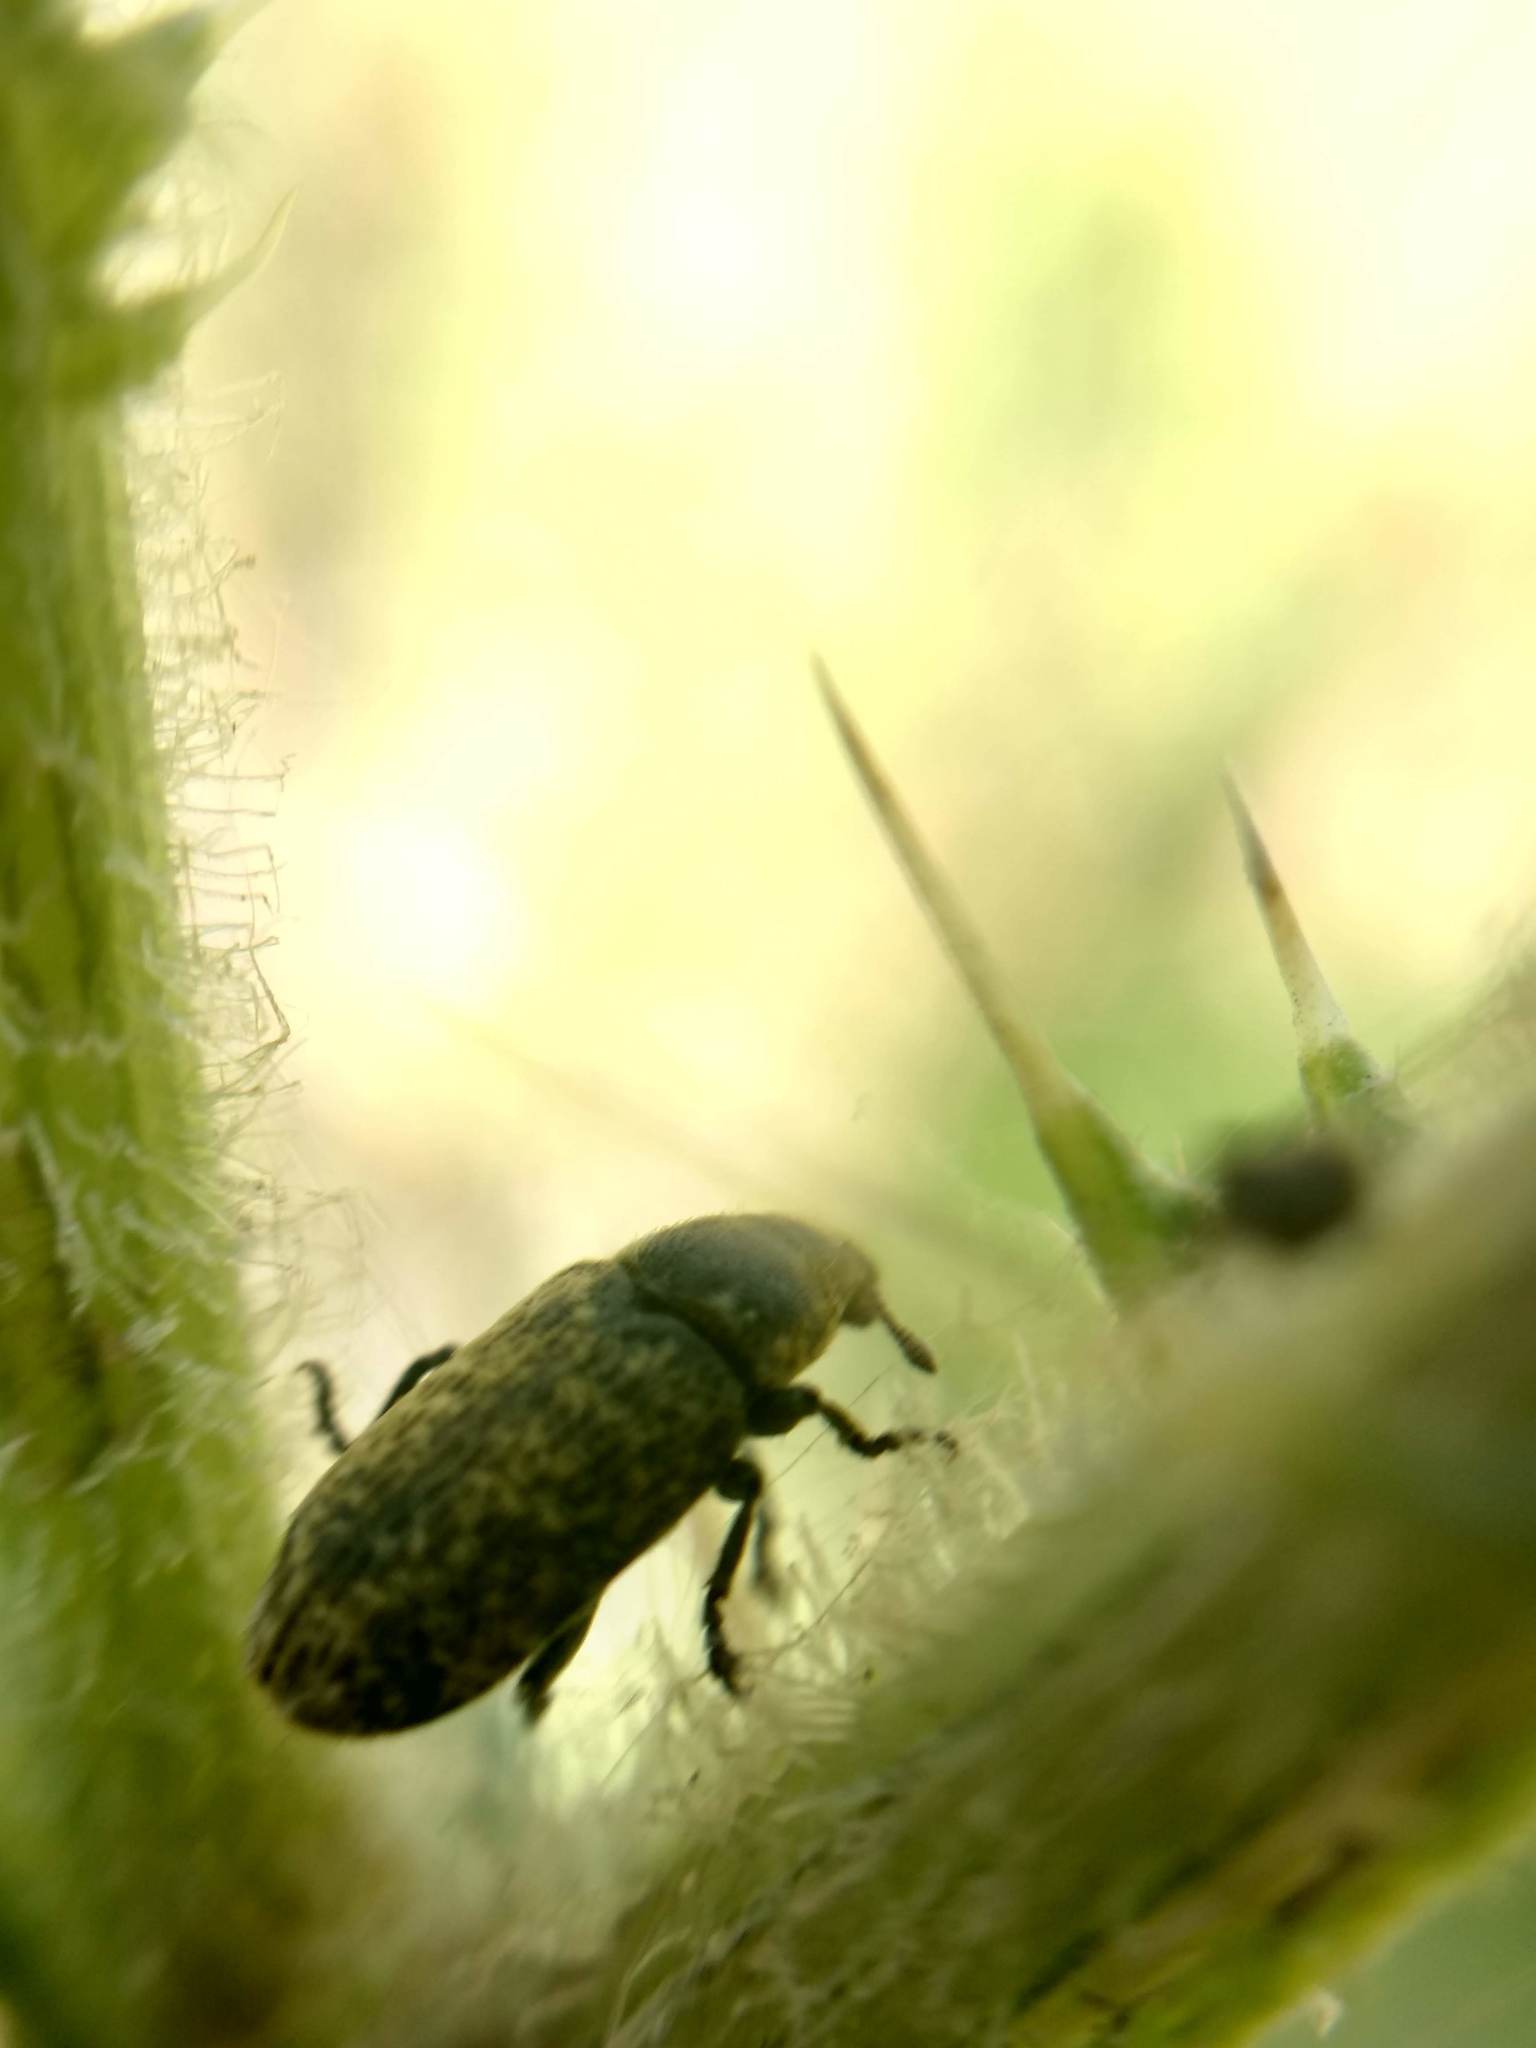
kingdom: Animalia
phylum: Arthropoda
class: Insecta
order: Coleoptera
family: Curculionidae
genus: Rhinocyllus
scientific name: Rhinocyllus conicus
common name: Weevil
